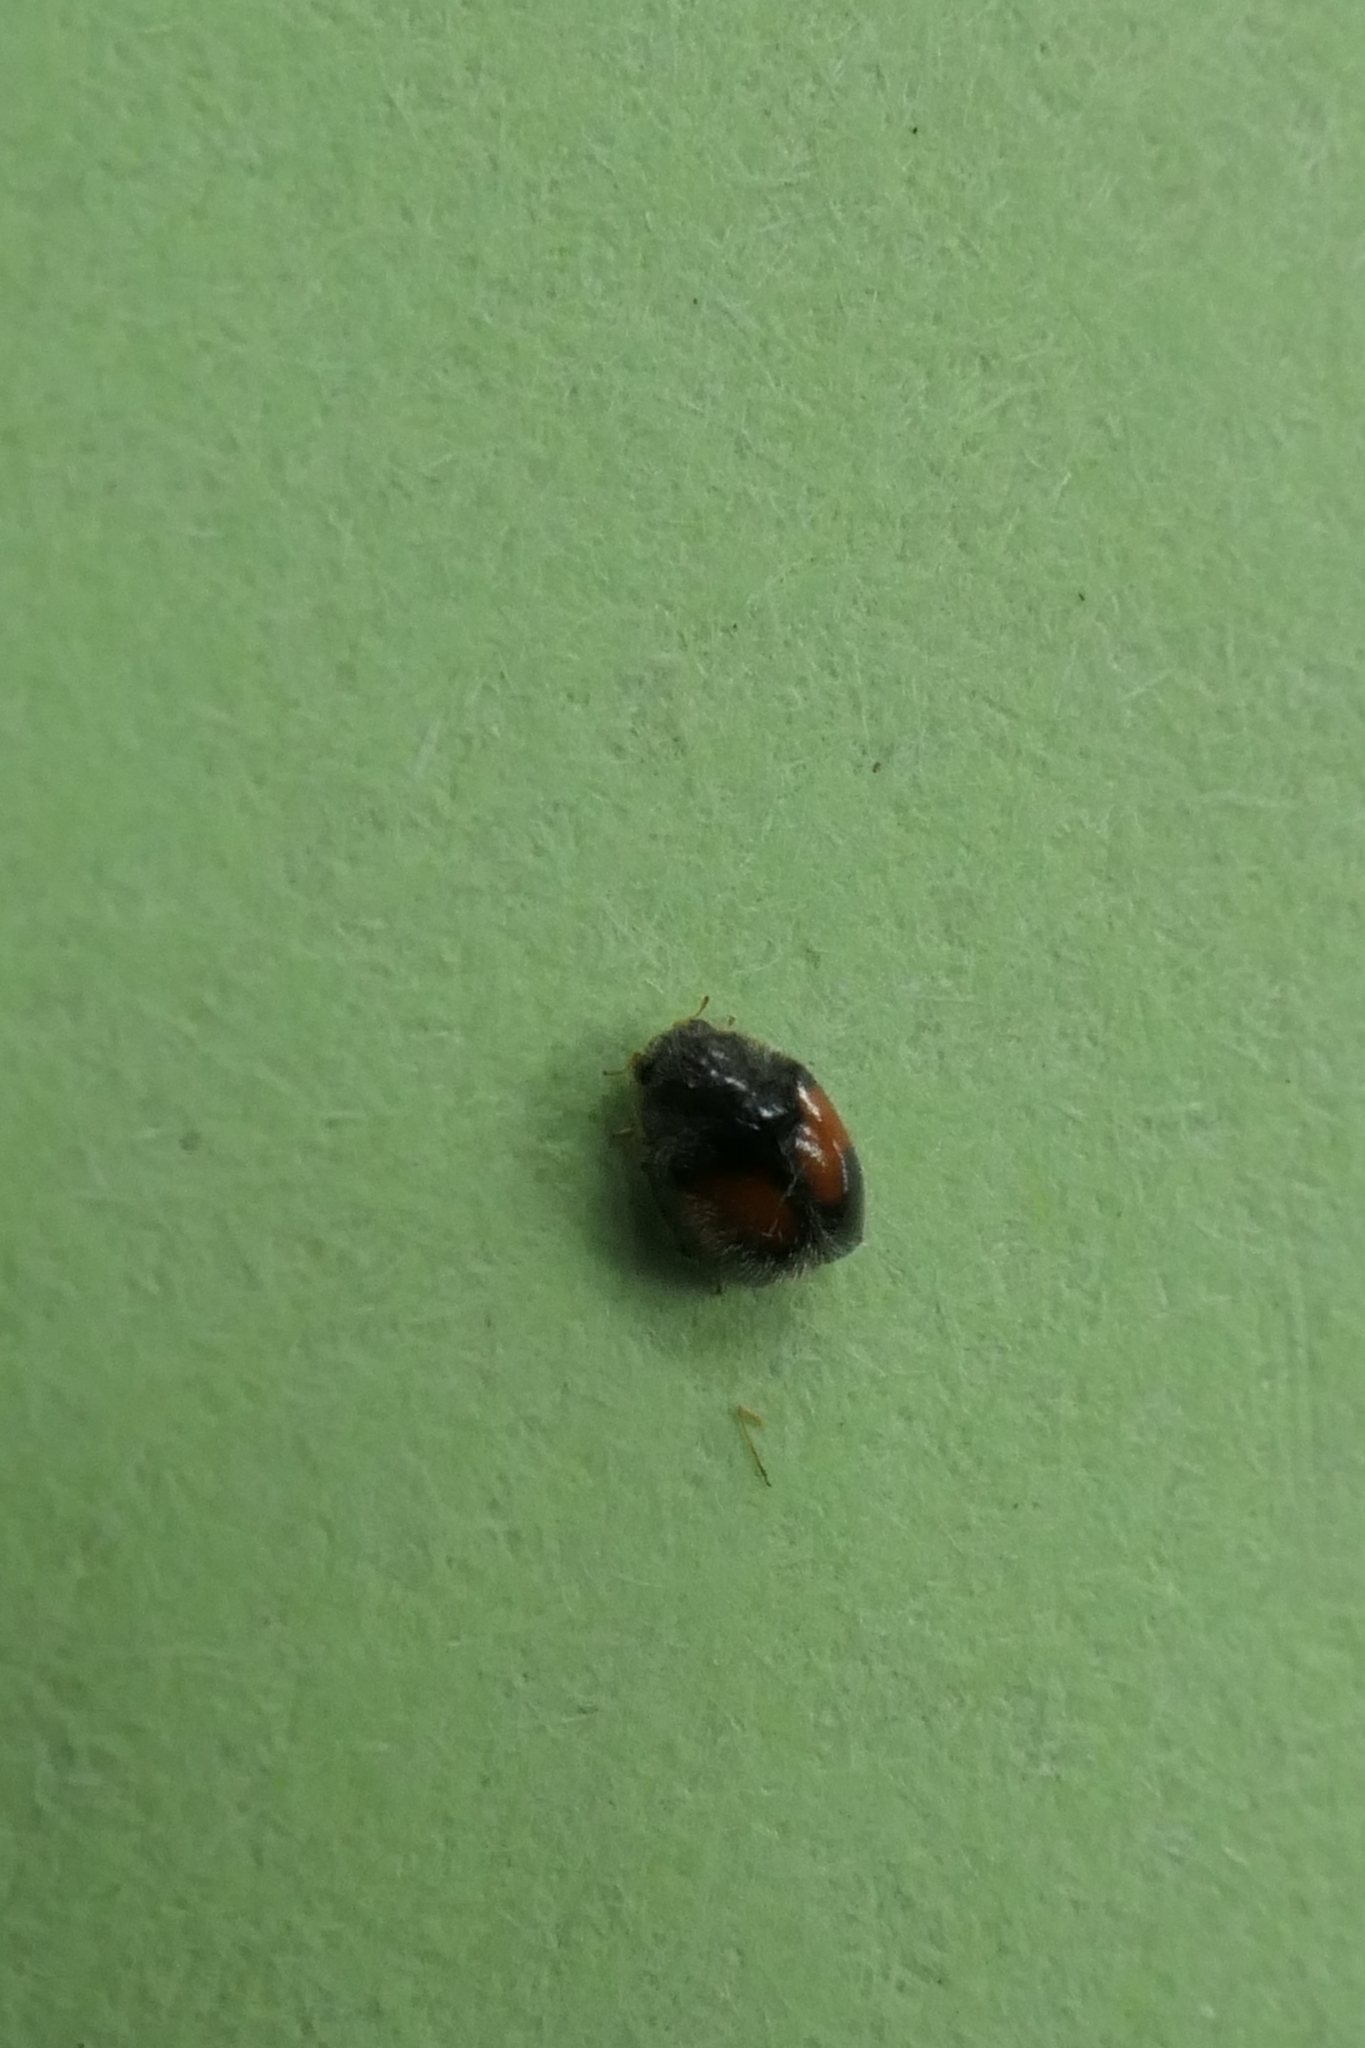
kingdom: Animalia
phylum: Arthropoda
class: Insecta
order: Coleoptera
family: Coccinellidae
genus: Scymnus
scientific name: Scymnus notescens
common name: Minute two-spotted ladybird beetle
